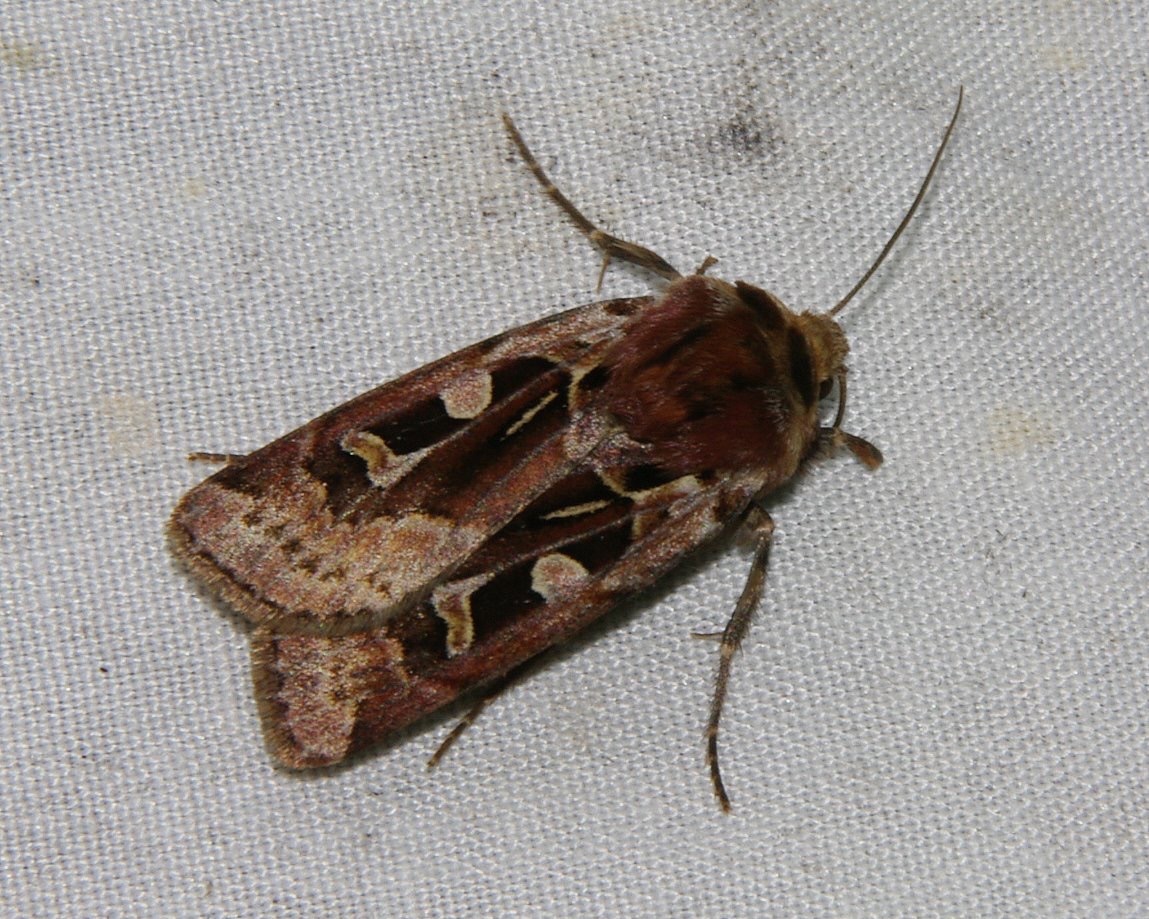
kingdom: Animalia
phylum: Arthropoda
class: Insecta
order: Lepidoptera
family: Noctuidae
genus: Xestia
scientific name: Xestia scropulana
